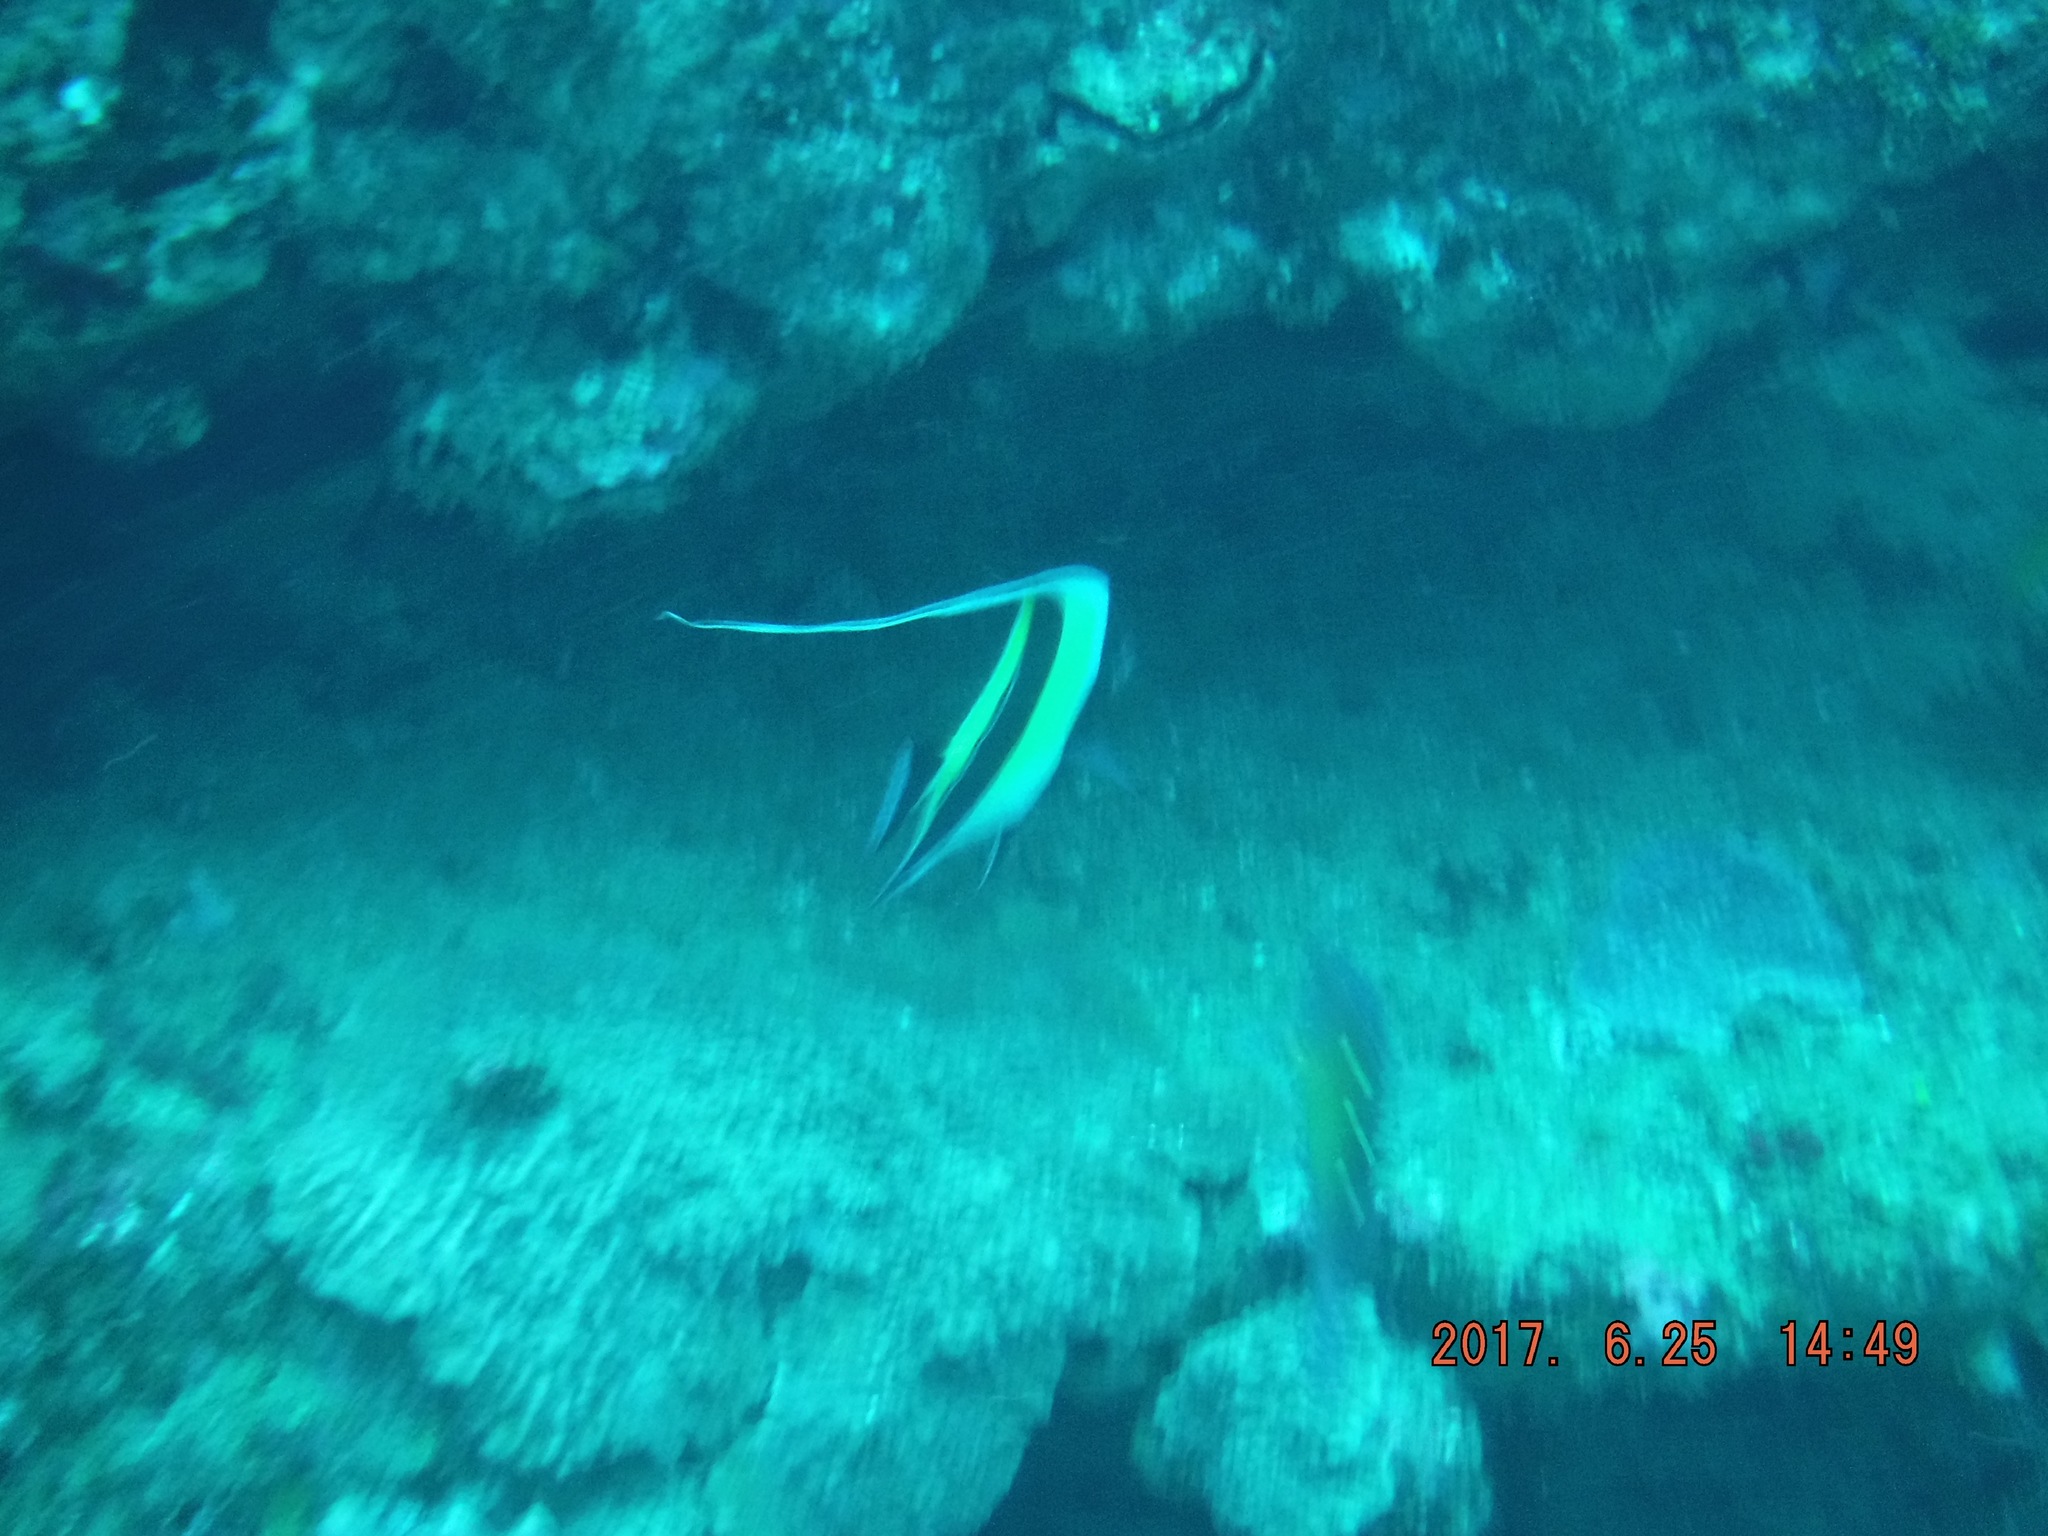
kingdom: Animalia
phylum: Chordata
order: Perciformes
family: Zanclidae
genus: Zanclus
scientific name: Zanclus cornutus
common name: Moorish idol
